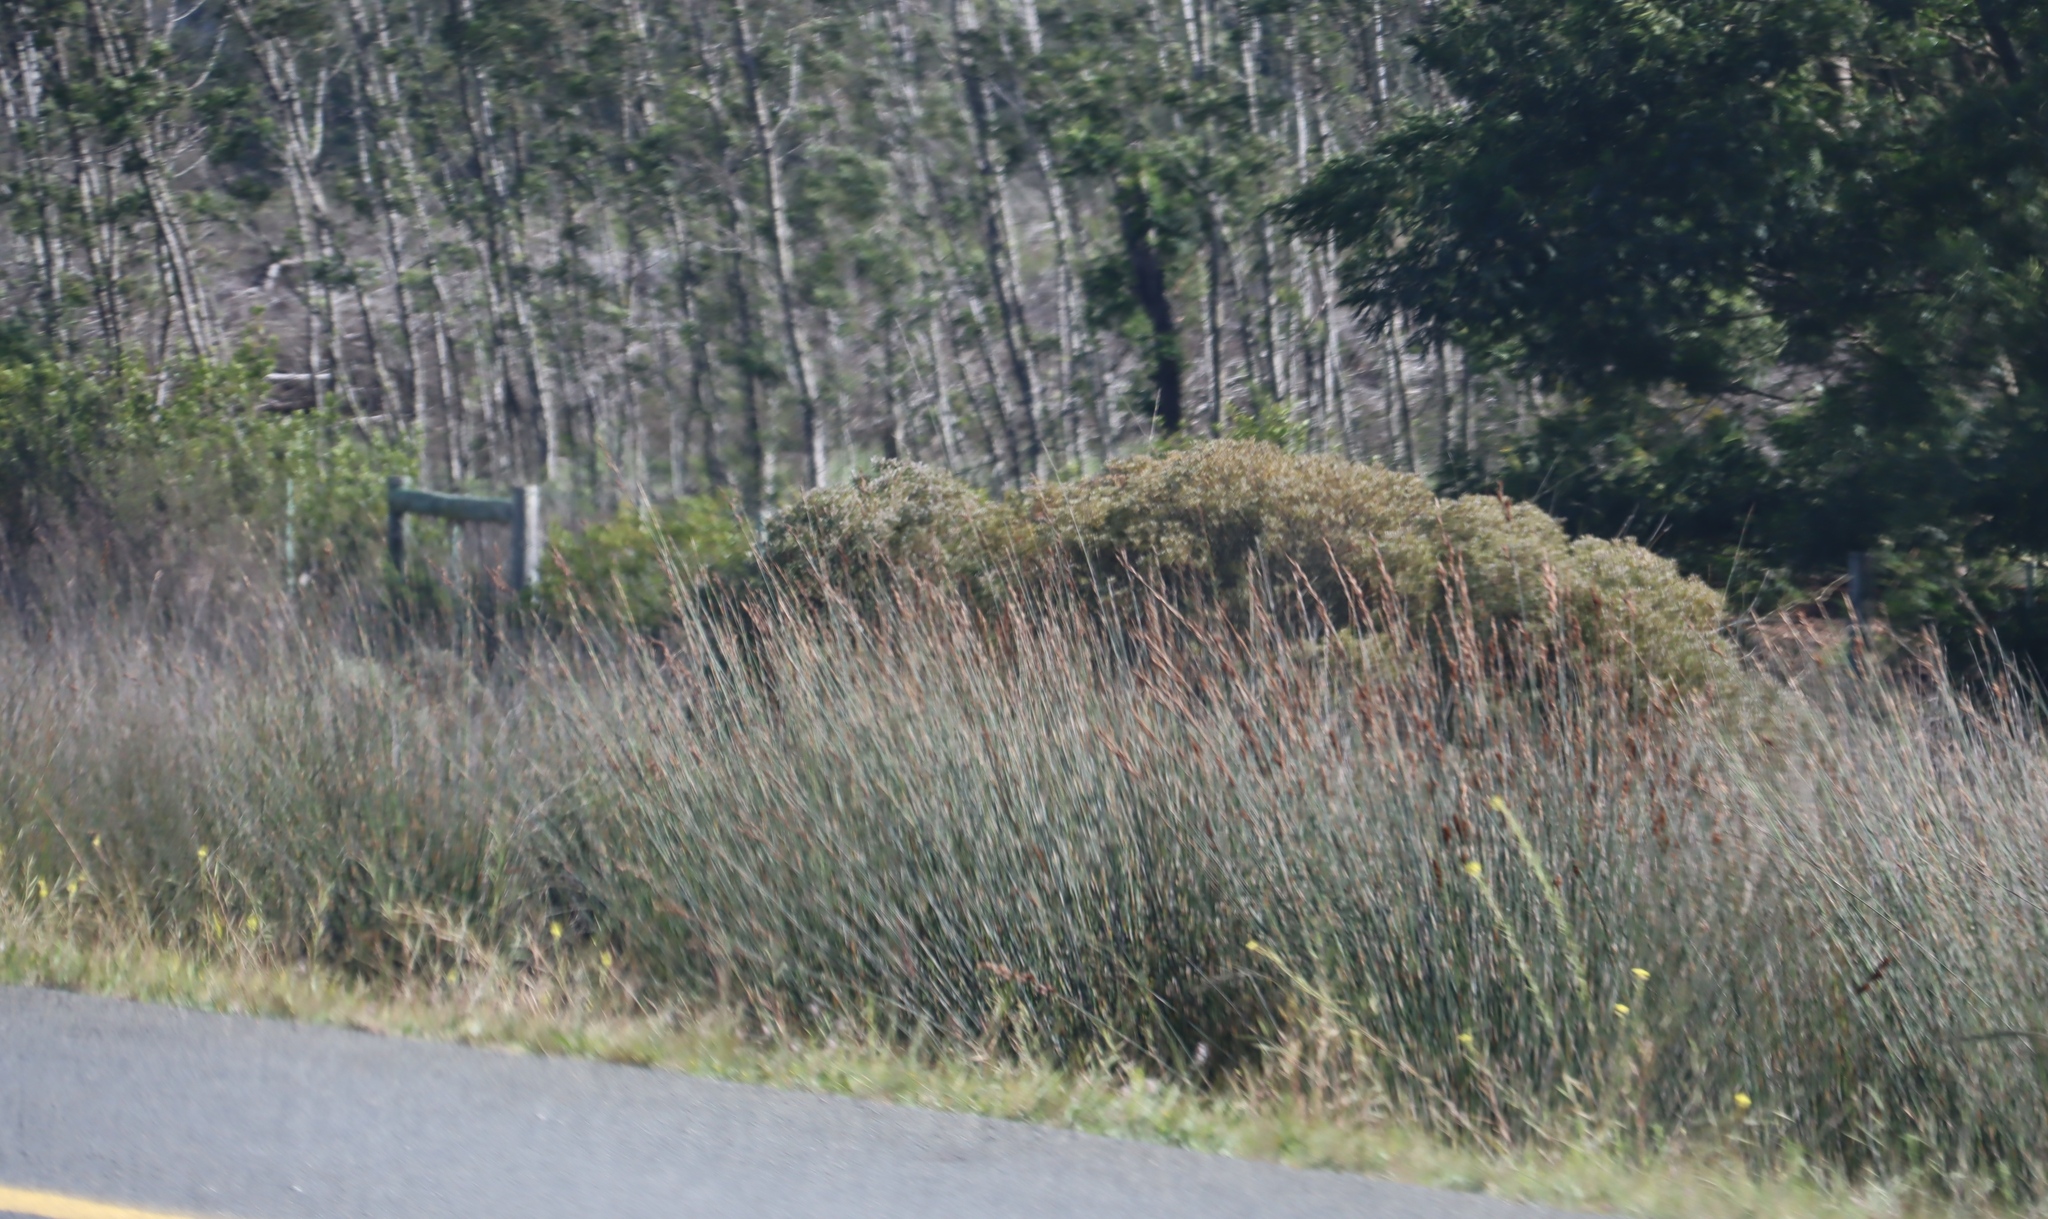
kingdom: Plantae
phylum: Tracheophyta
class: Magnoliopsida
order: Proteales
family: Proteaceae
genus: Leucadendron
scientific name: Leucadendron galpinii
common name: Hairless conebush
